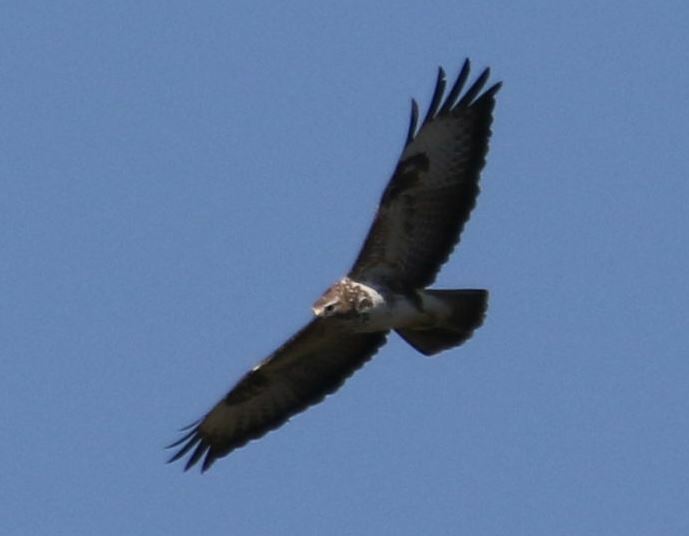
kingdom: Animalia
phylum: Chordata
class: Aves
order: Accipitriformes
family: Accipitridae
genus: Buteo
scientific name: Buteo buteo
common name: Common buzzard
